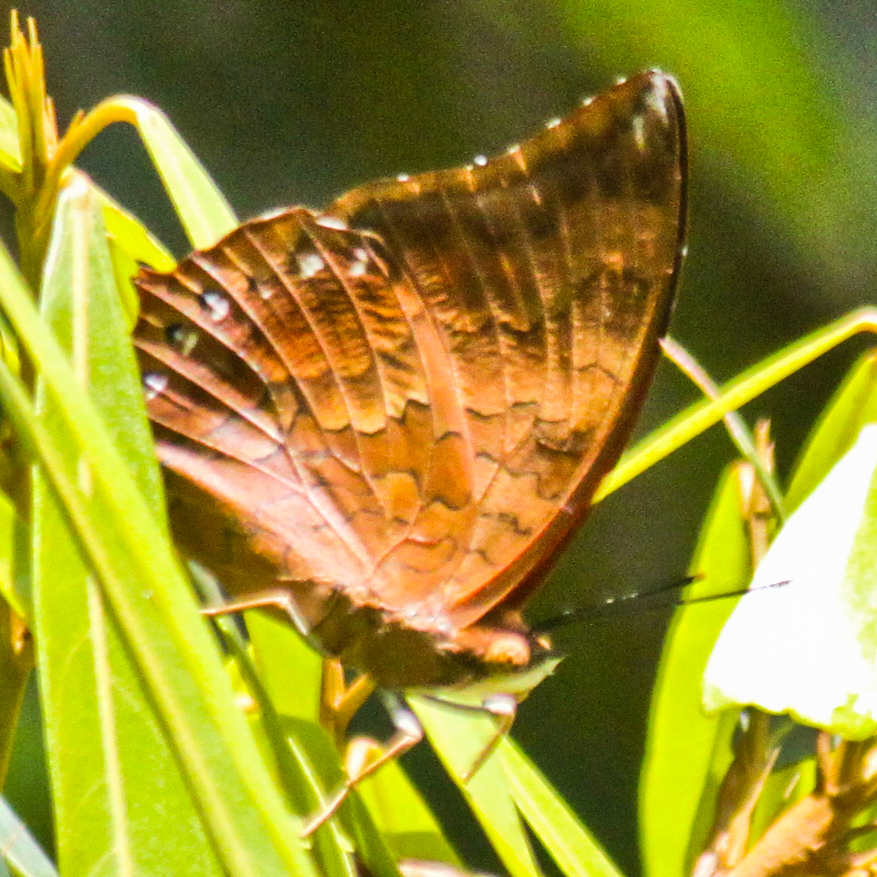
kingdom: Animalia
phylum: Arthropoda
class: Insecta
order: Lepidoptera
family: Nymphalidae
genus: Charaxes
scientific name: Charaxes bernardus
